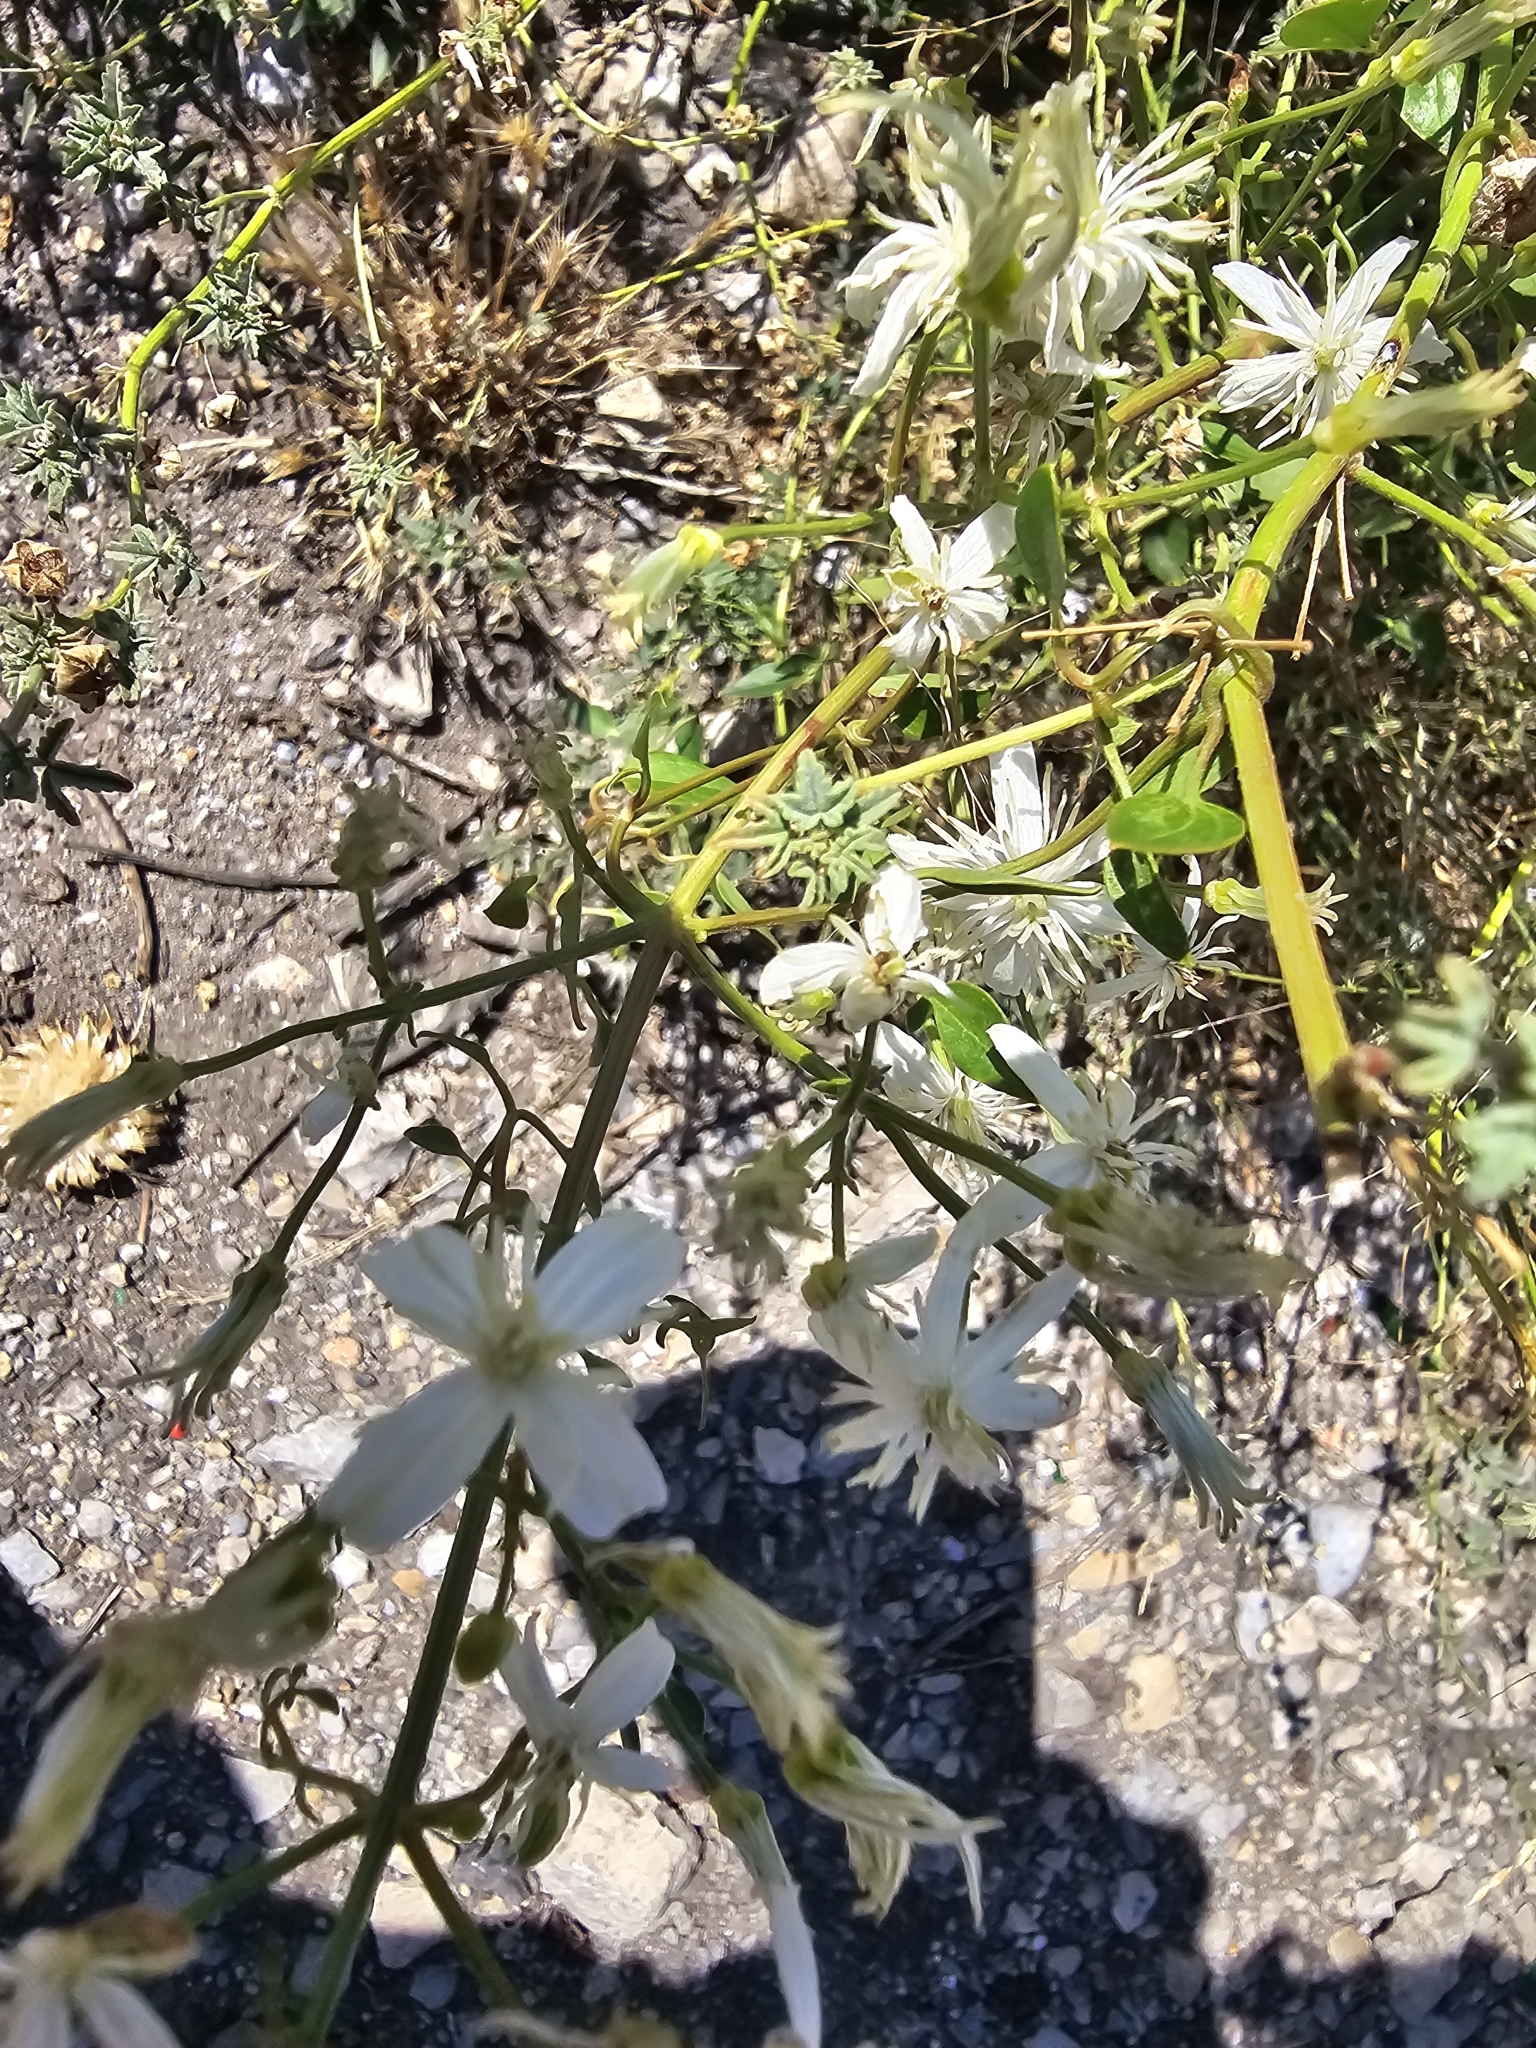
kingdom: Plantae
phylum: Tracheophyta
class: Magnoliopsida
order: Ranunculales
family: Ranunculaceae
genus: Clematis
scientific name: Clematis flammula
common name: Virgin's-bower
